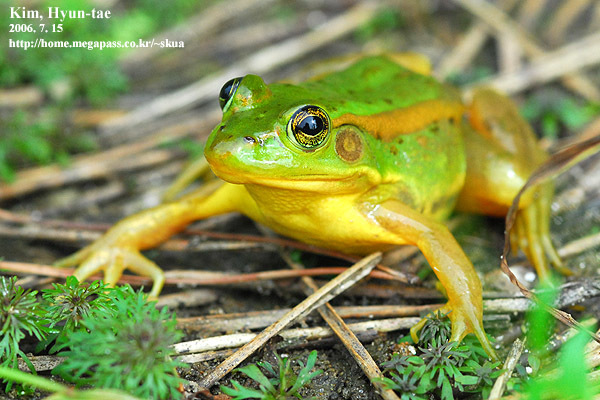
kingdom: Animalia
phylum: Chordata
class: Amphibia
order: Anura
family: Ranidae
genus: Pelophylax
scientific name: Pelophylax chosenicus
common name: Gold-spotted pond frog
